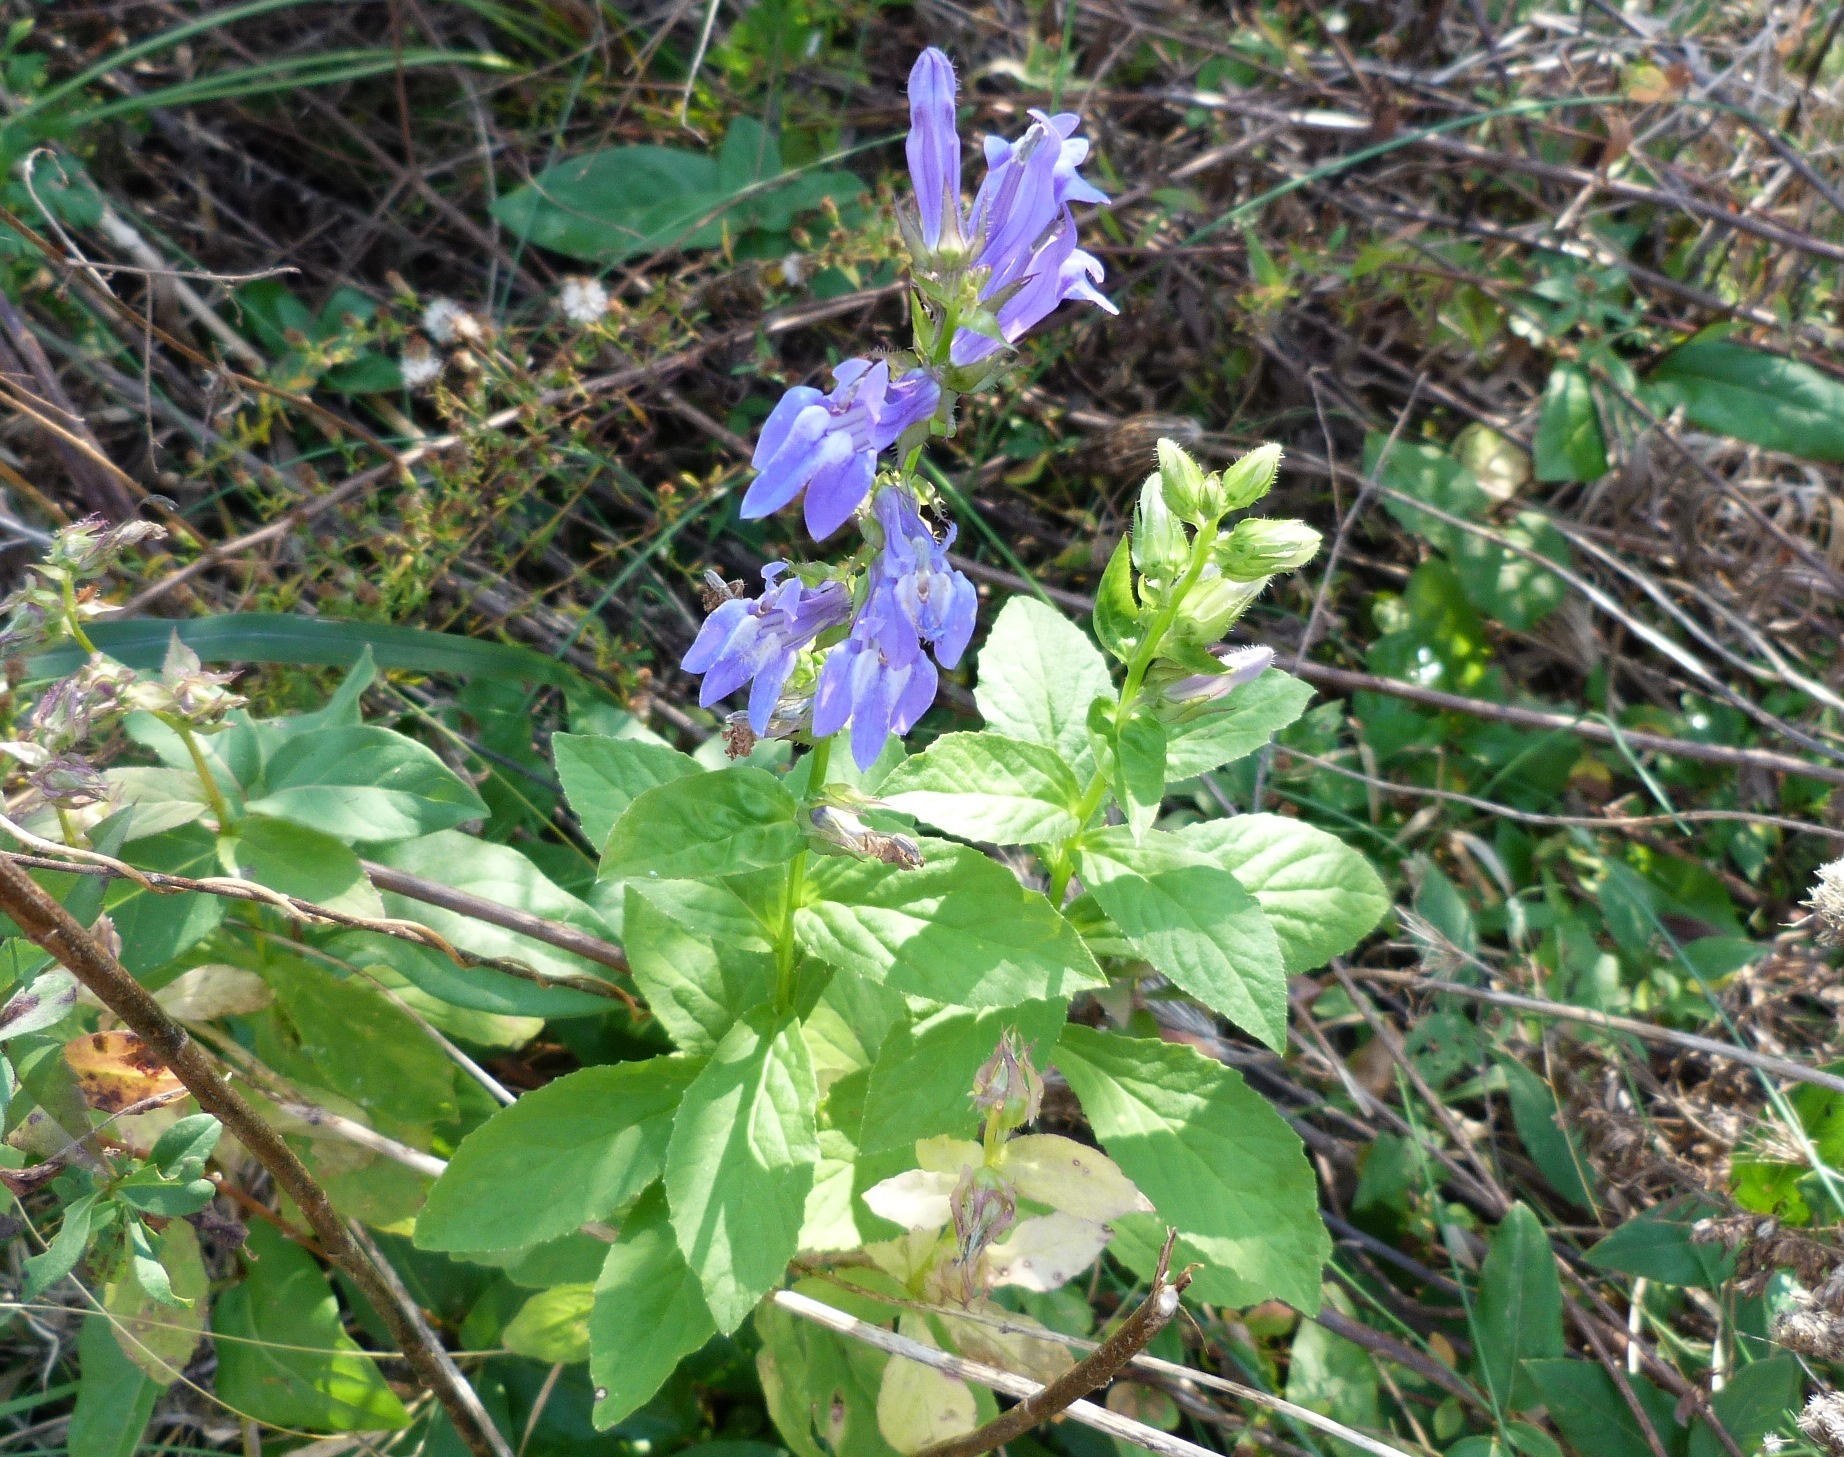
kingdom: Plantae
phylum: Tracheophyta
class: Magnoliopsida
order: Asterales
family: Campanulaceae
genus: Lobelia
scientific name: Lobelia siphilitica
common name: Great lobelia
